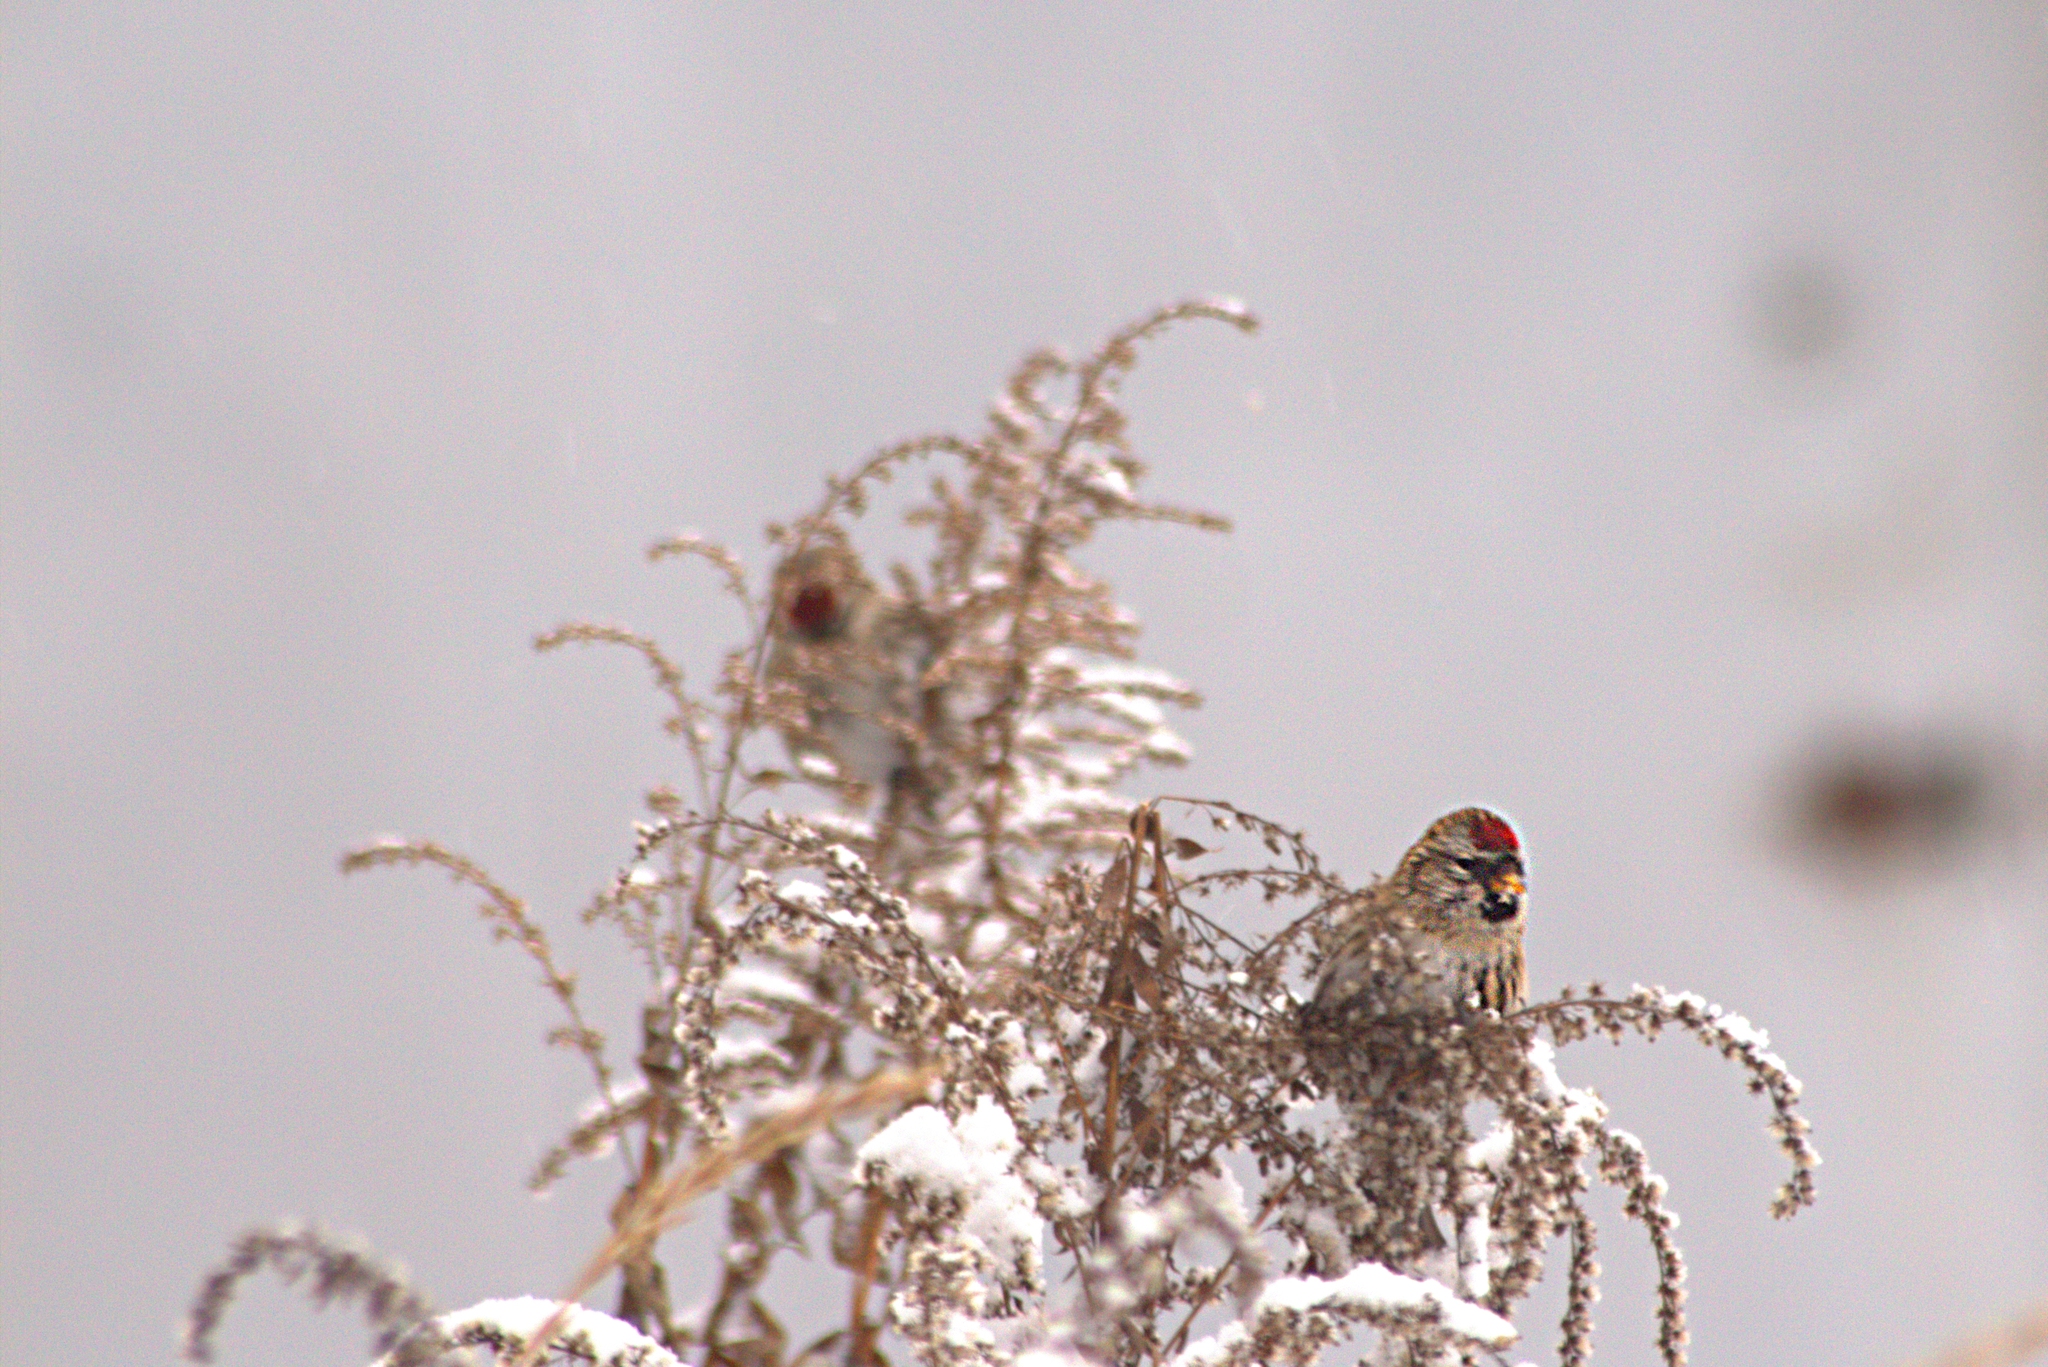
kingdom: Animalia
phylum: Chordata
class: Aves
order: Passeriformes
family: Fringillidae
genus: Acanthis
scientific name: Acanthis flammea
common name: Common redpoll
